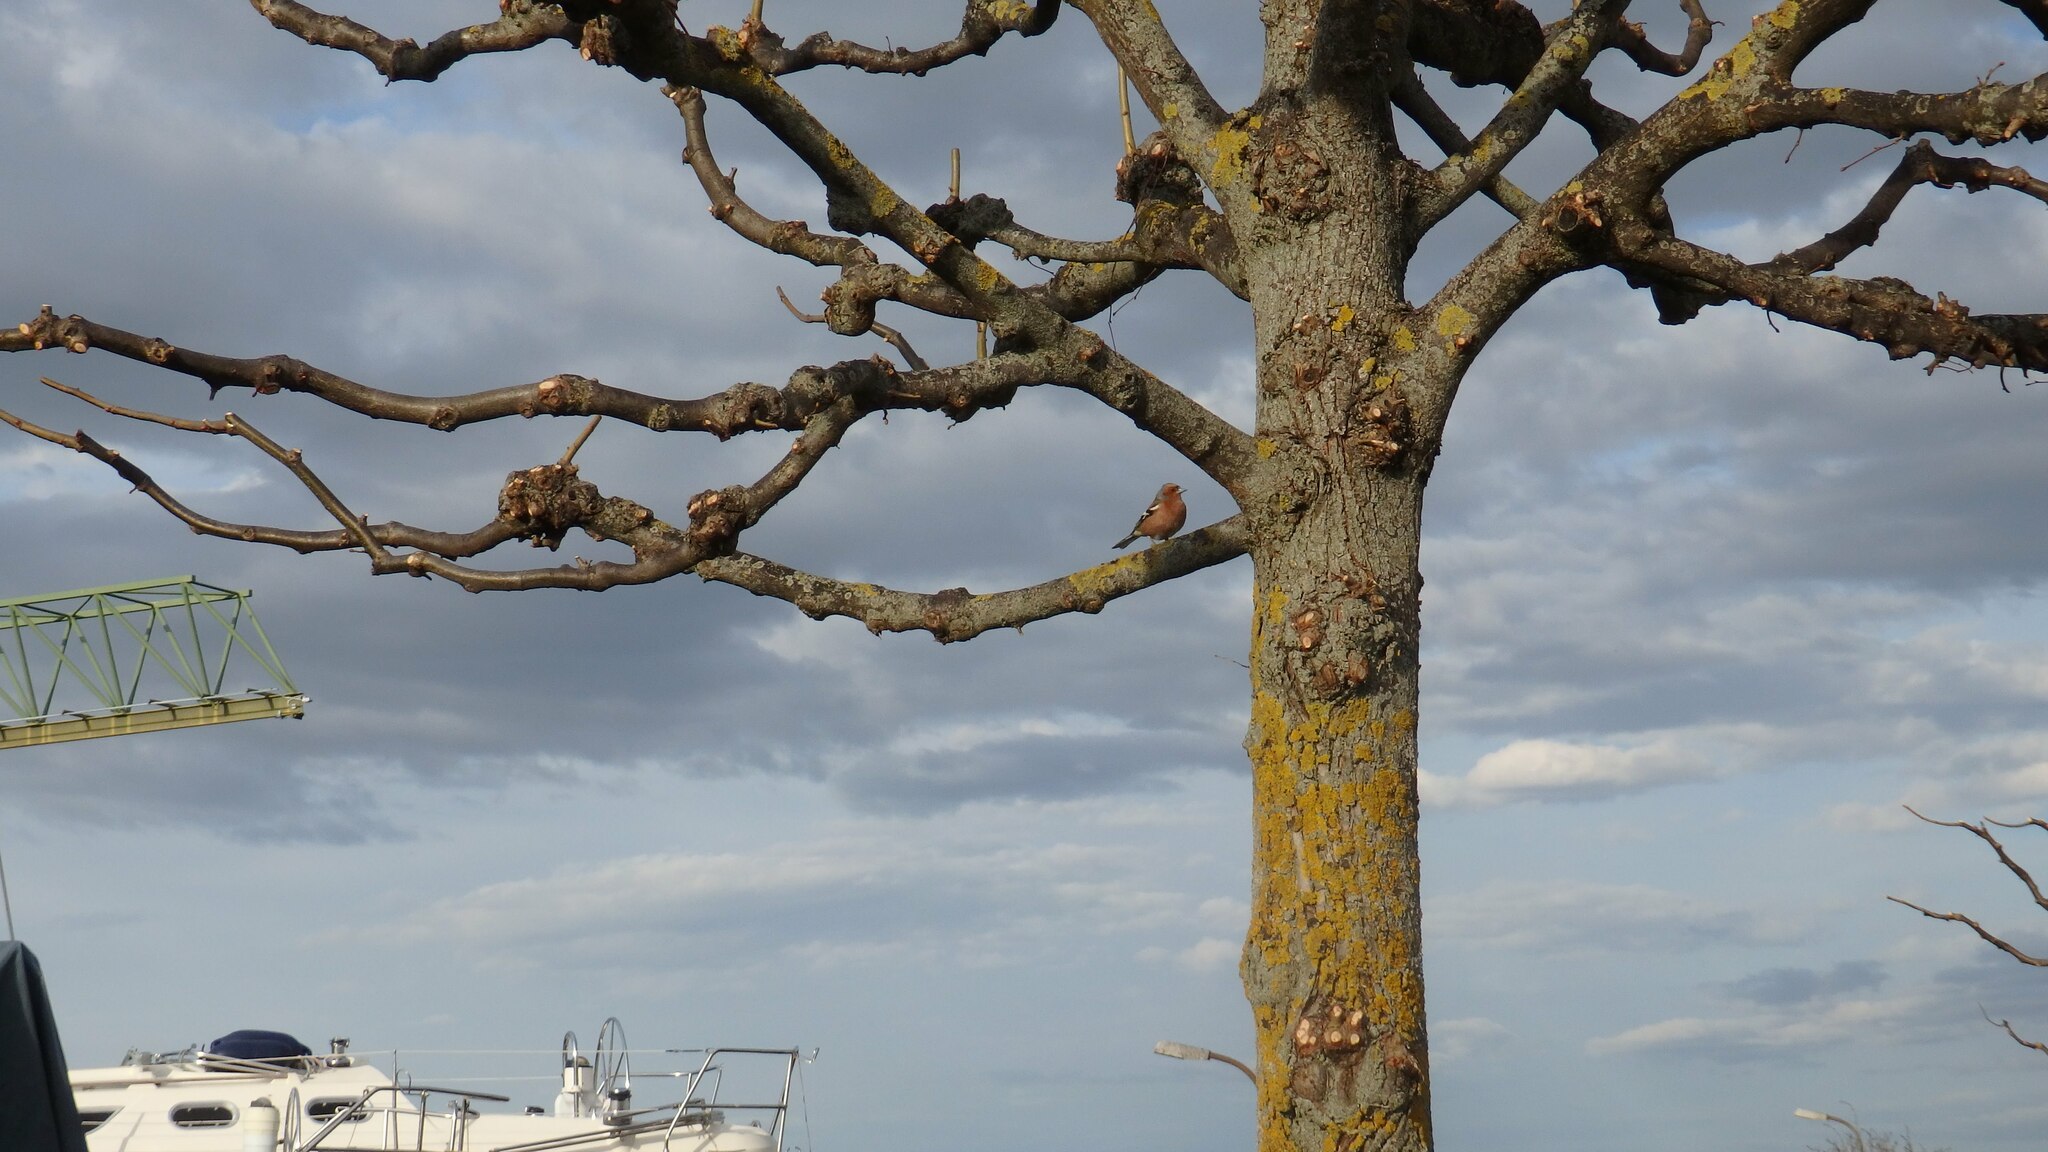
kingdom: Animalia
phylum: Chordata
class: Aves
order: Passeriformes
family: Fringillidae
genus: Fringilla
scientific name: Fringilla coelebs
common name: Common chaffinch
